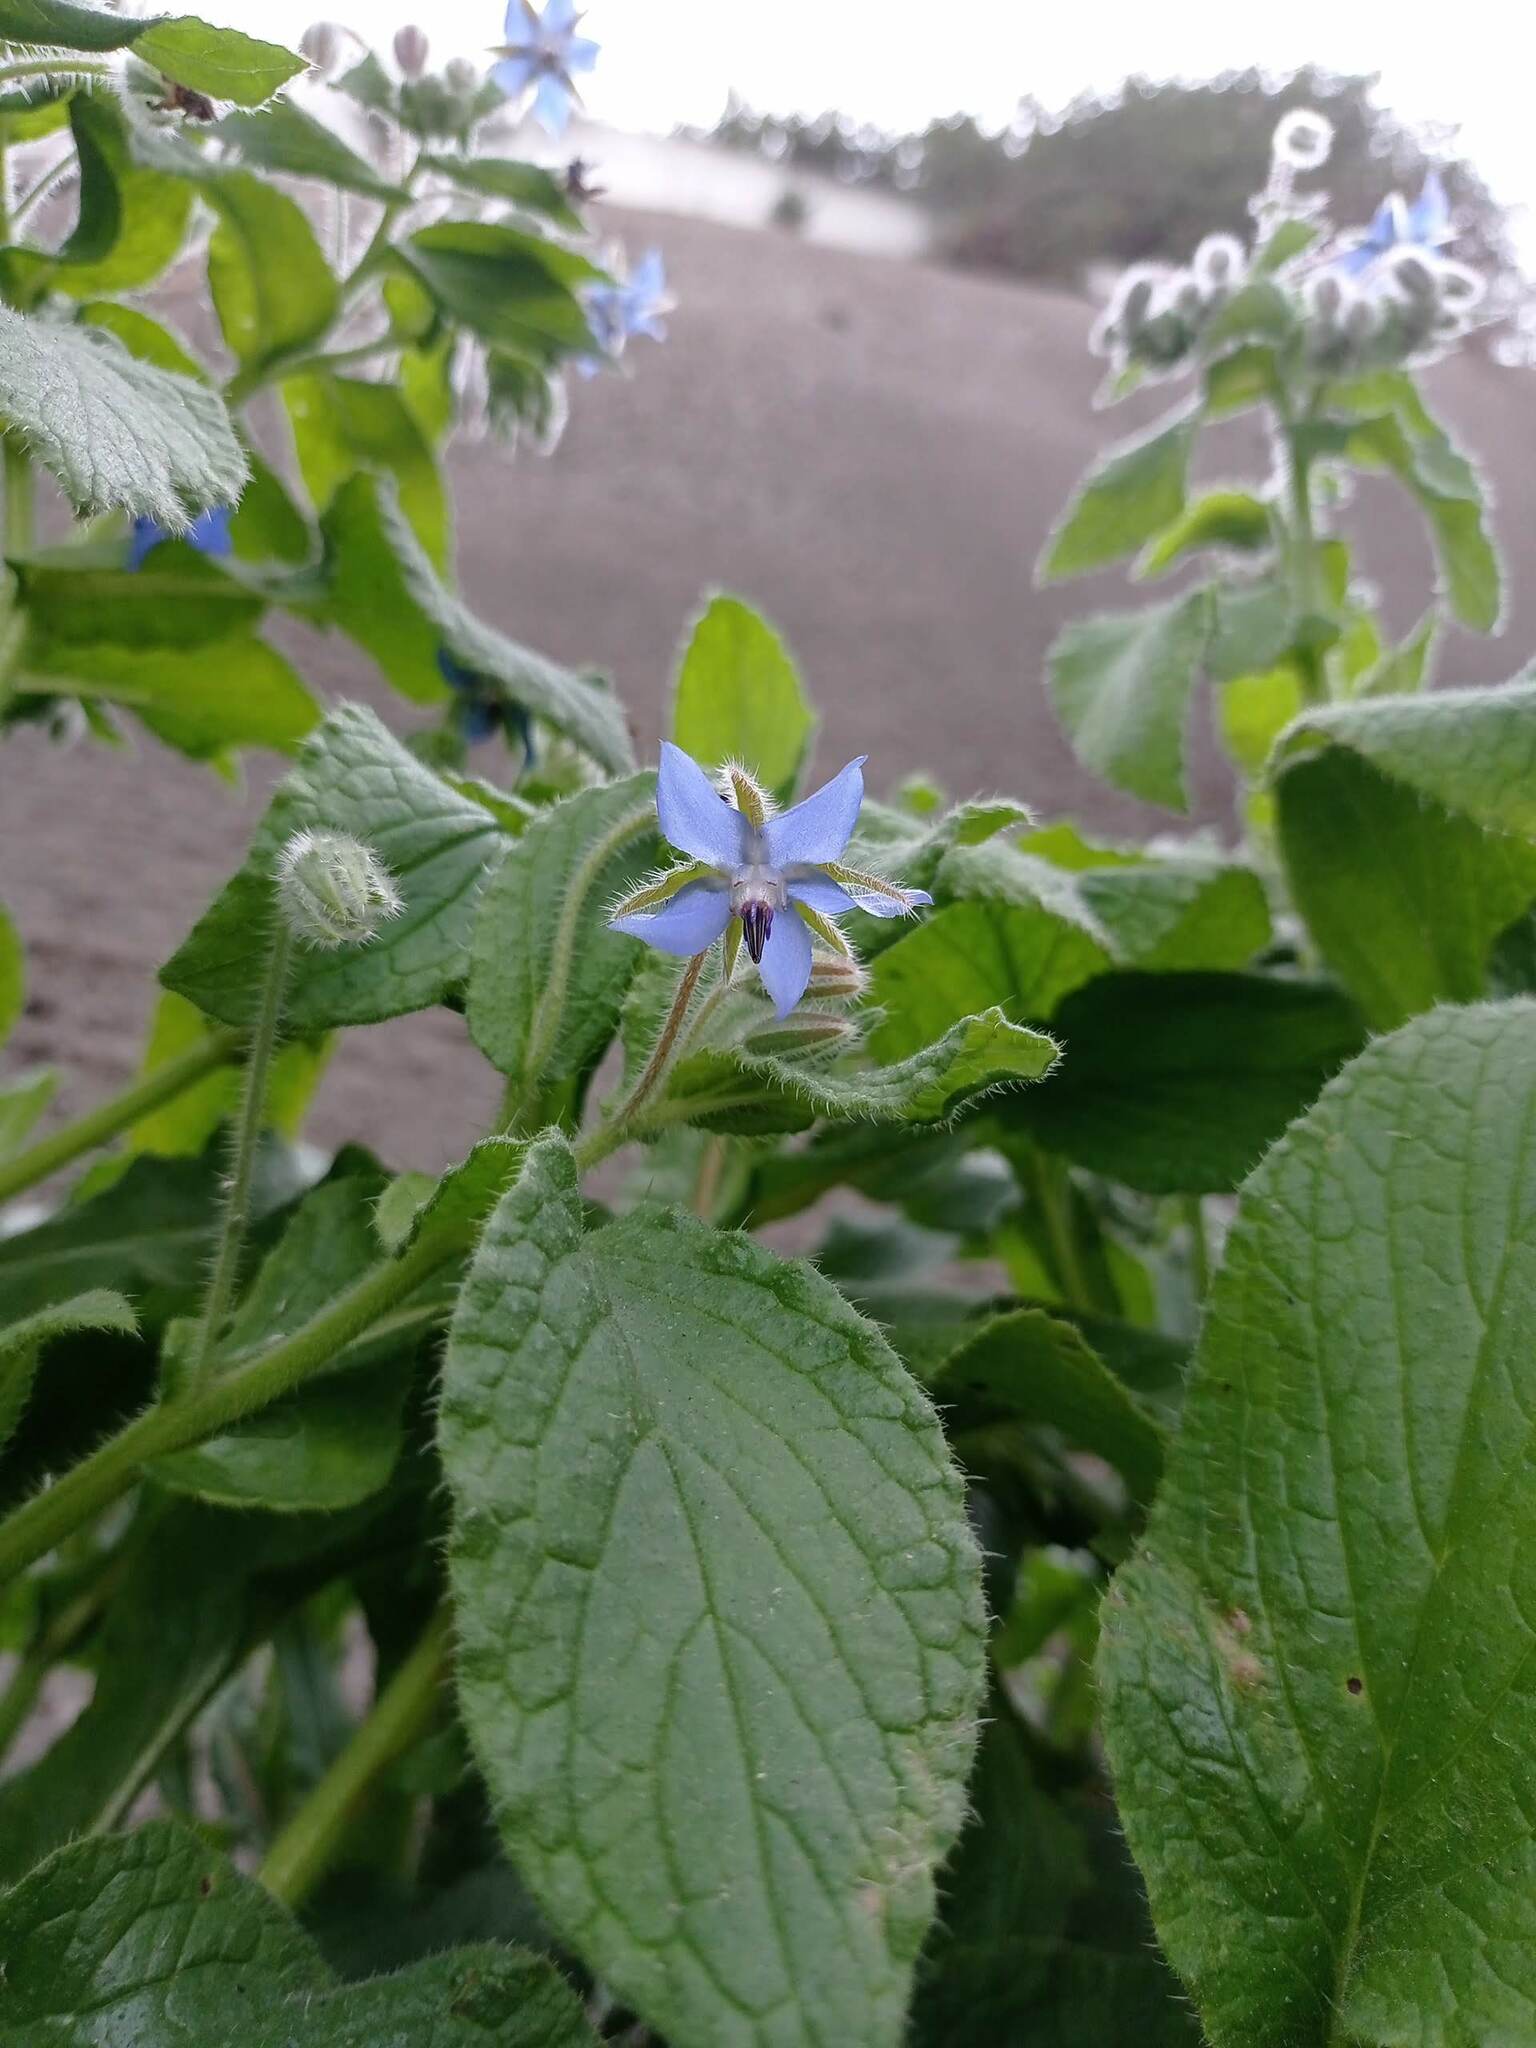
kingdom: Plantae
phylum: Tracheophyta
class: Magnoliopsida
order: Boraginales
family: Boraginaceae
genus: Borago
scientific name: Borago officinalis
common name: Borage
